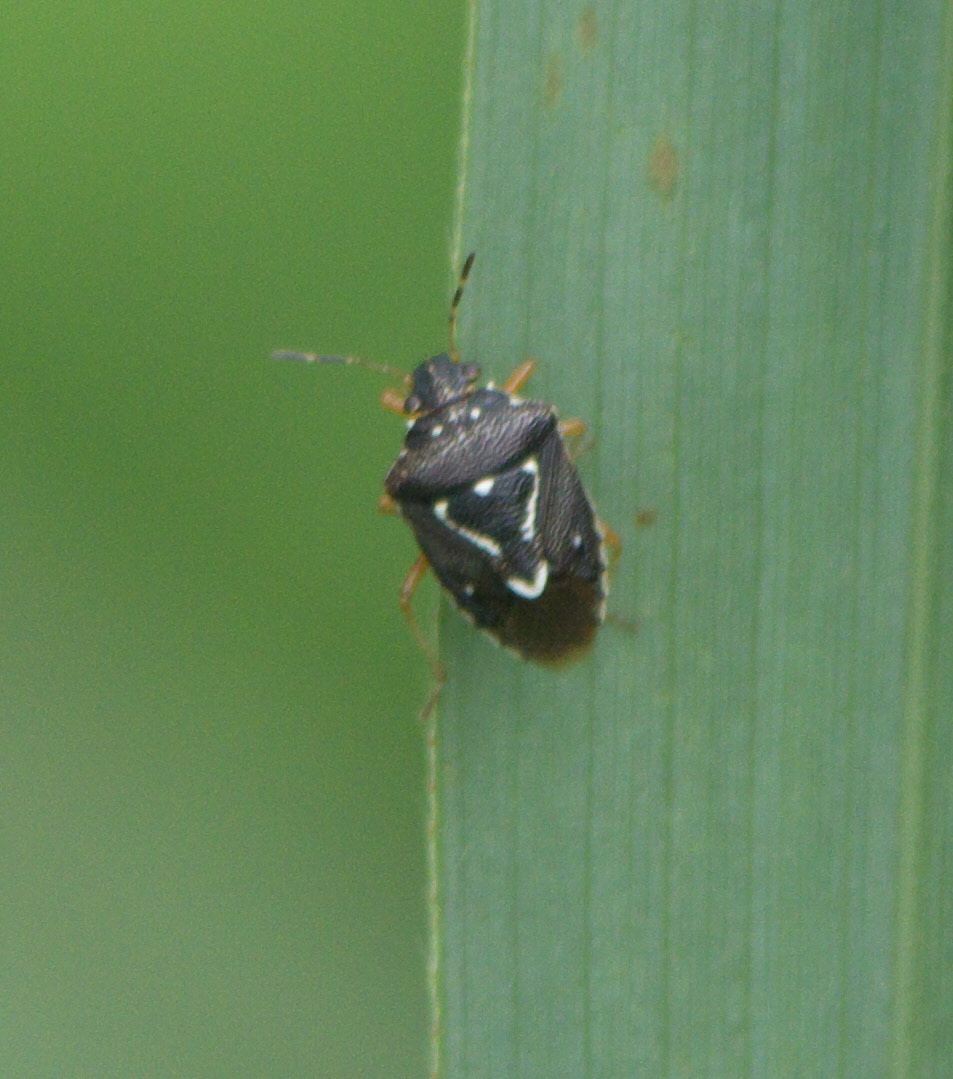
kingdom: Animalia
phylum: Arthropoda
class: Insecta
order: Hemiptera
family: Pentatomidae
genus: Mormidea
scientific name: Mormidea pama
